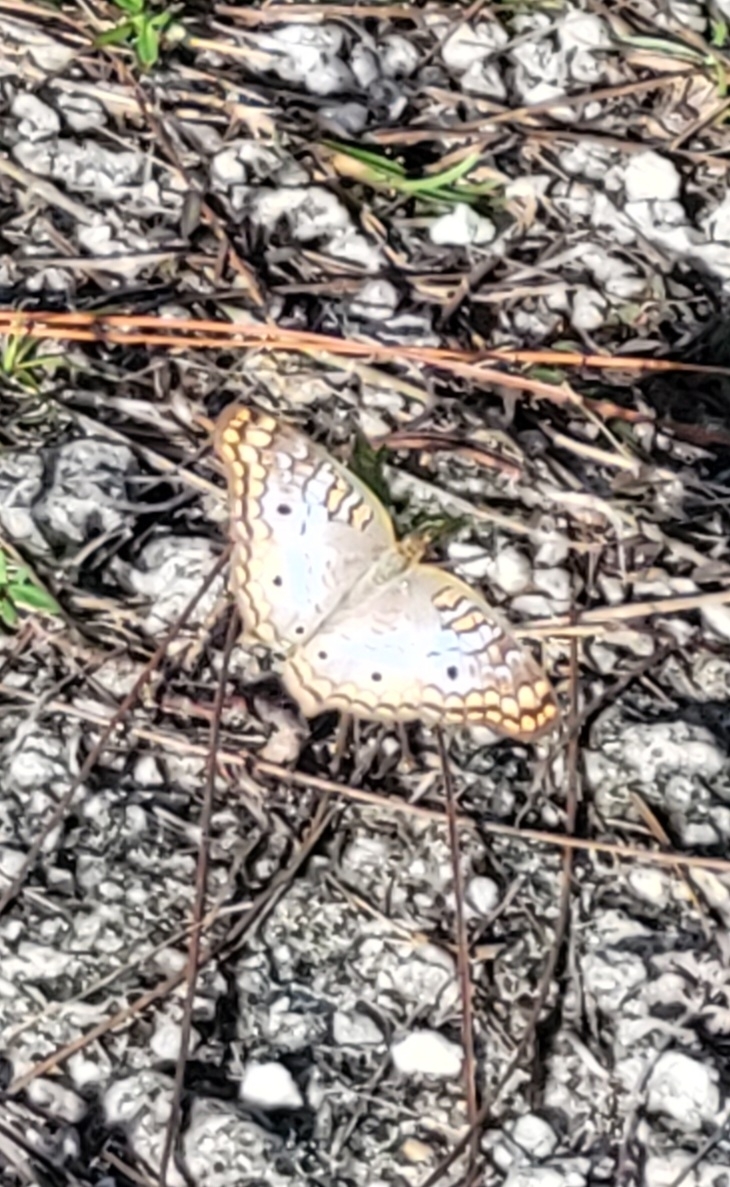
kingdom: Animalia
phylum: Arthropoda
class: Insecta
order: Lepidoptera
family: Nymphalidae
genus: Anartia
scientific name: Anartia jatrophae
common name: White peacock
